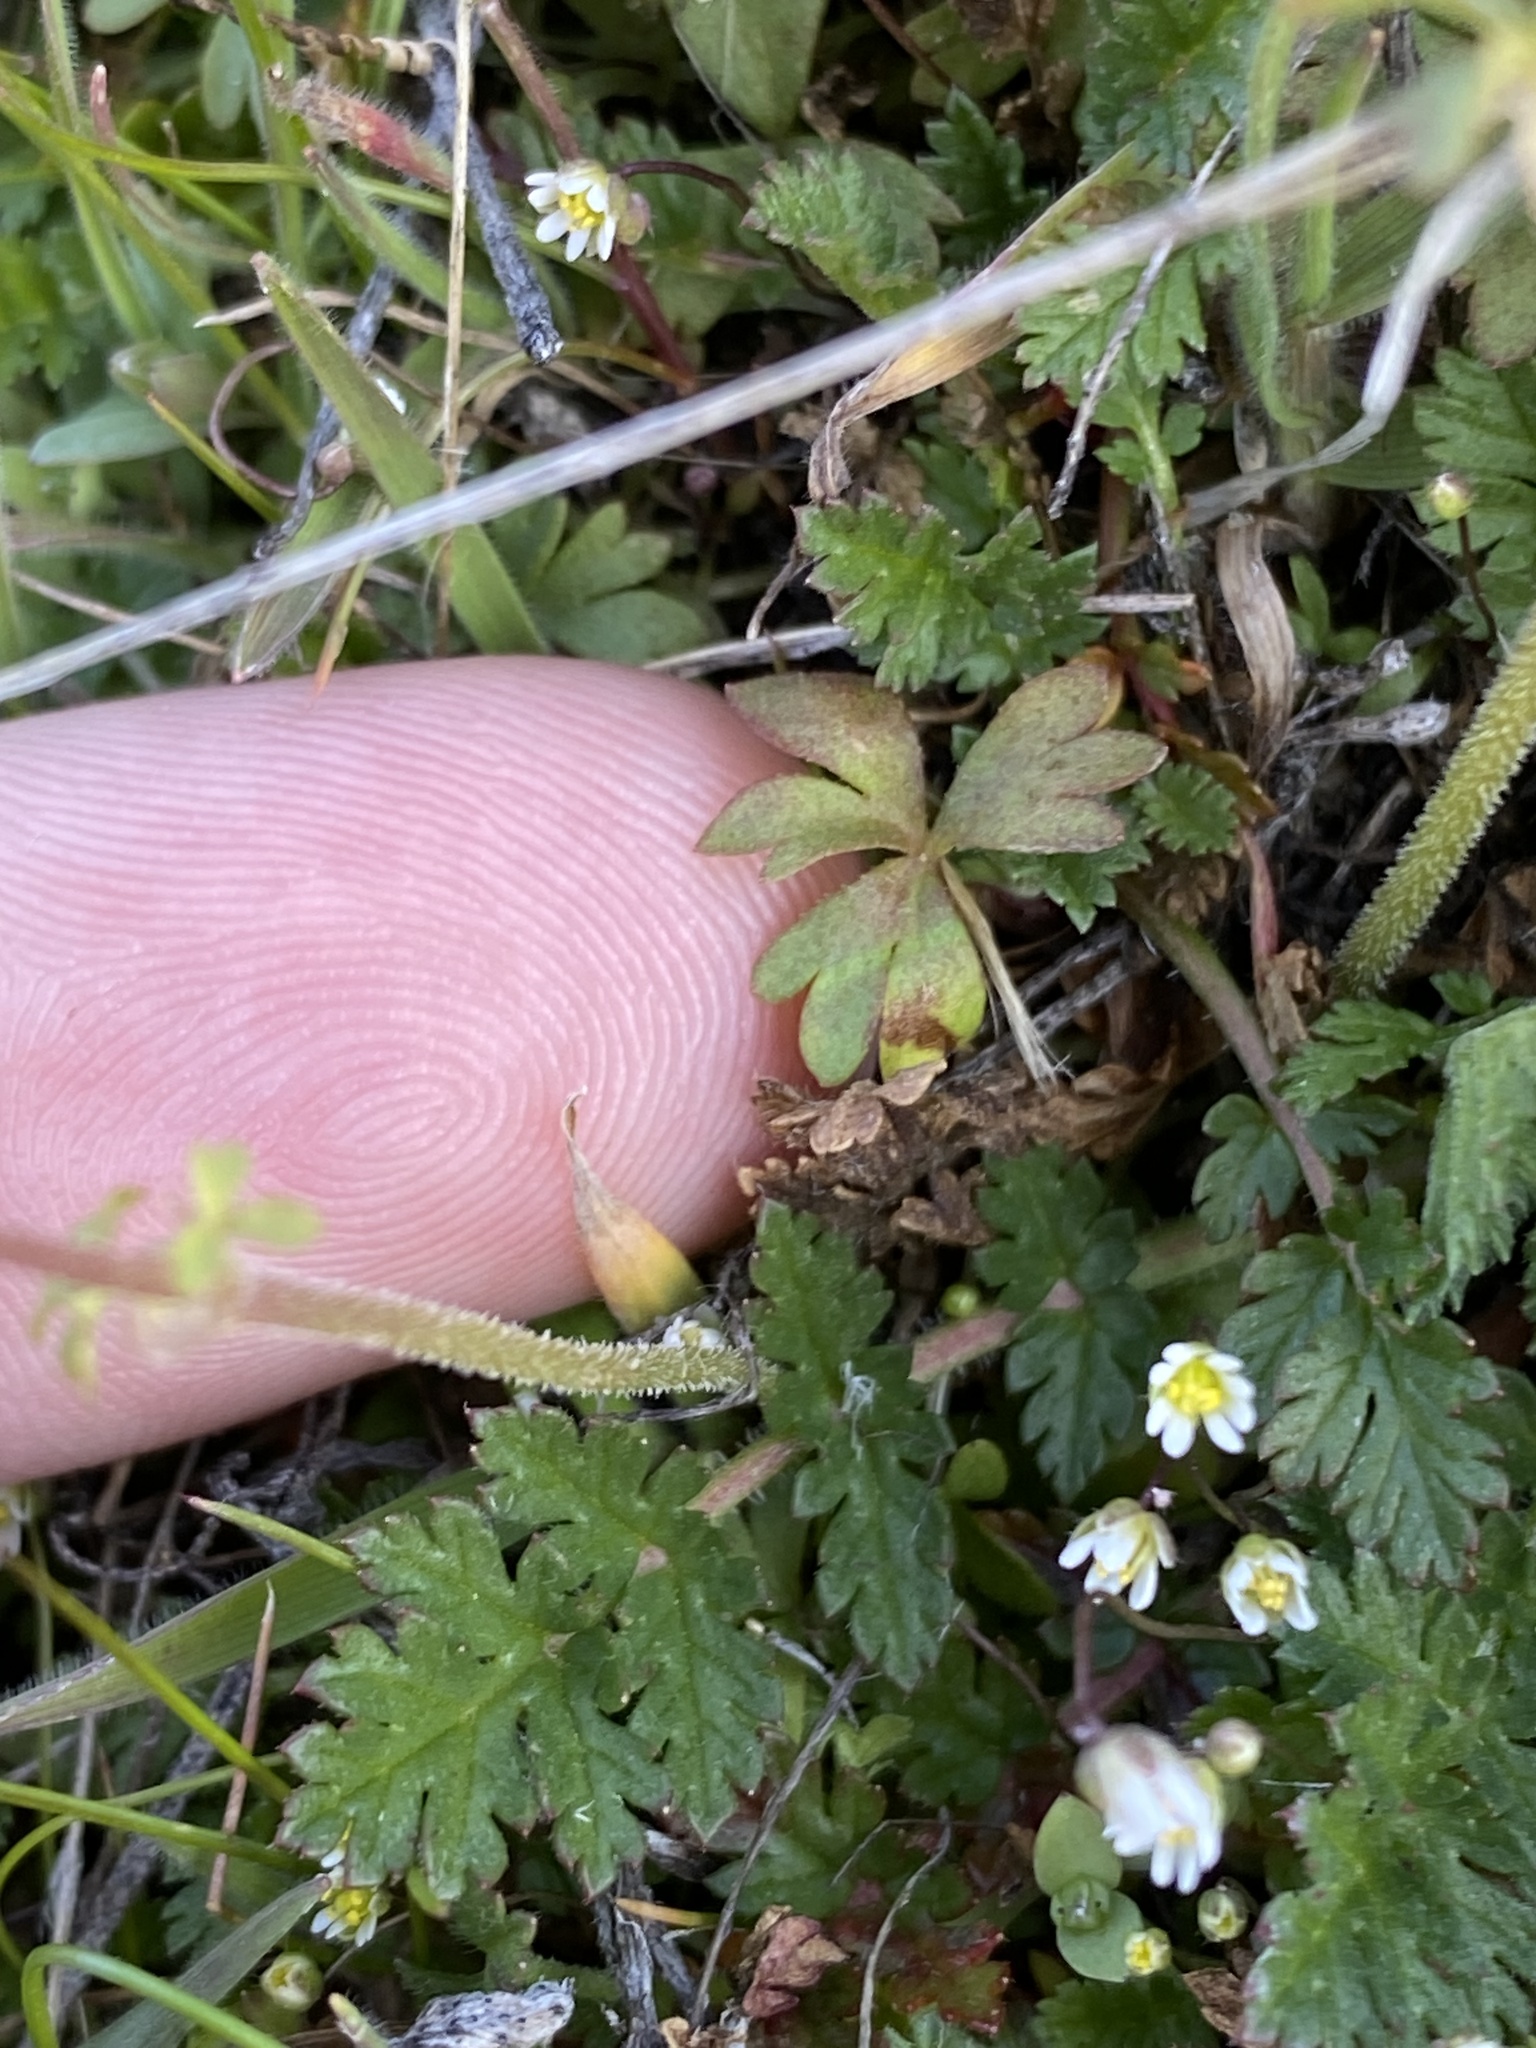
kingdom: Plantae
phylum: Tracheophyta
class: Magnoliopsida
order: Saxifragales
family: Saxifragaceae
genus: Lithophragma
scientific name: Lithophragma glabrum
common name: Bulbous prairie-star
